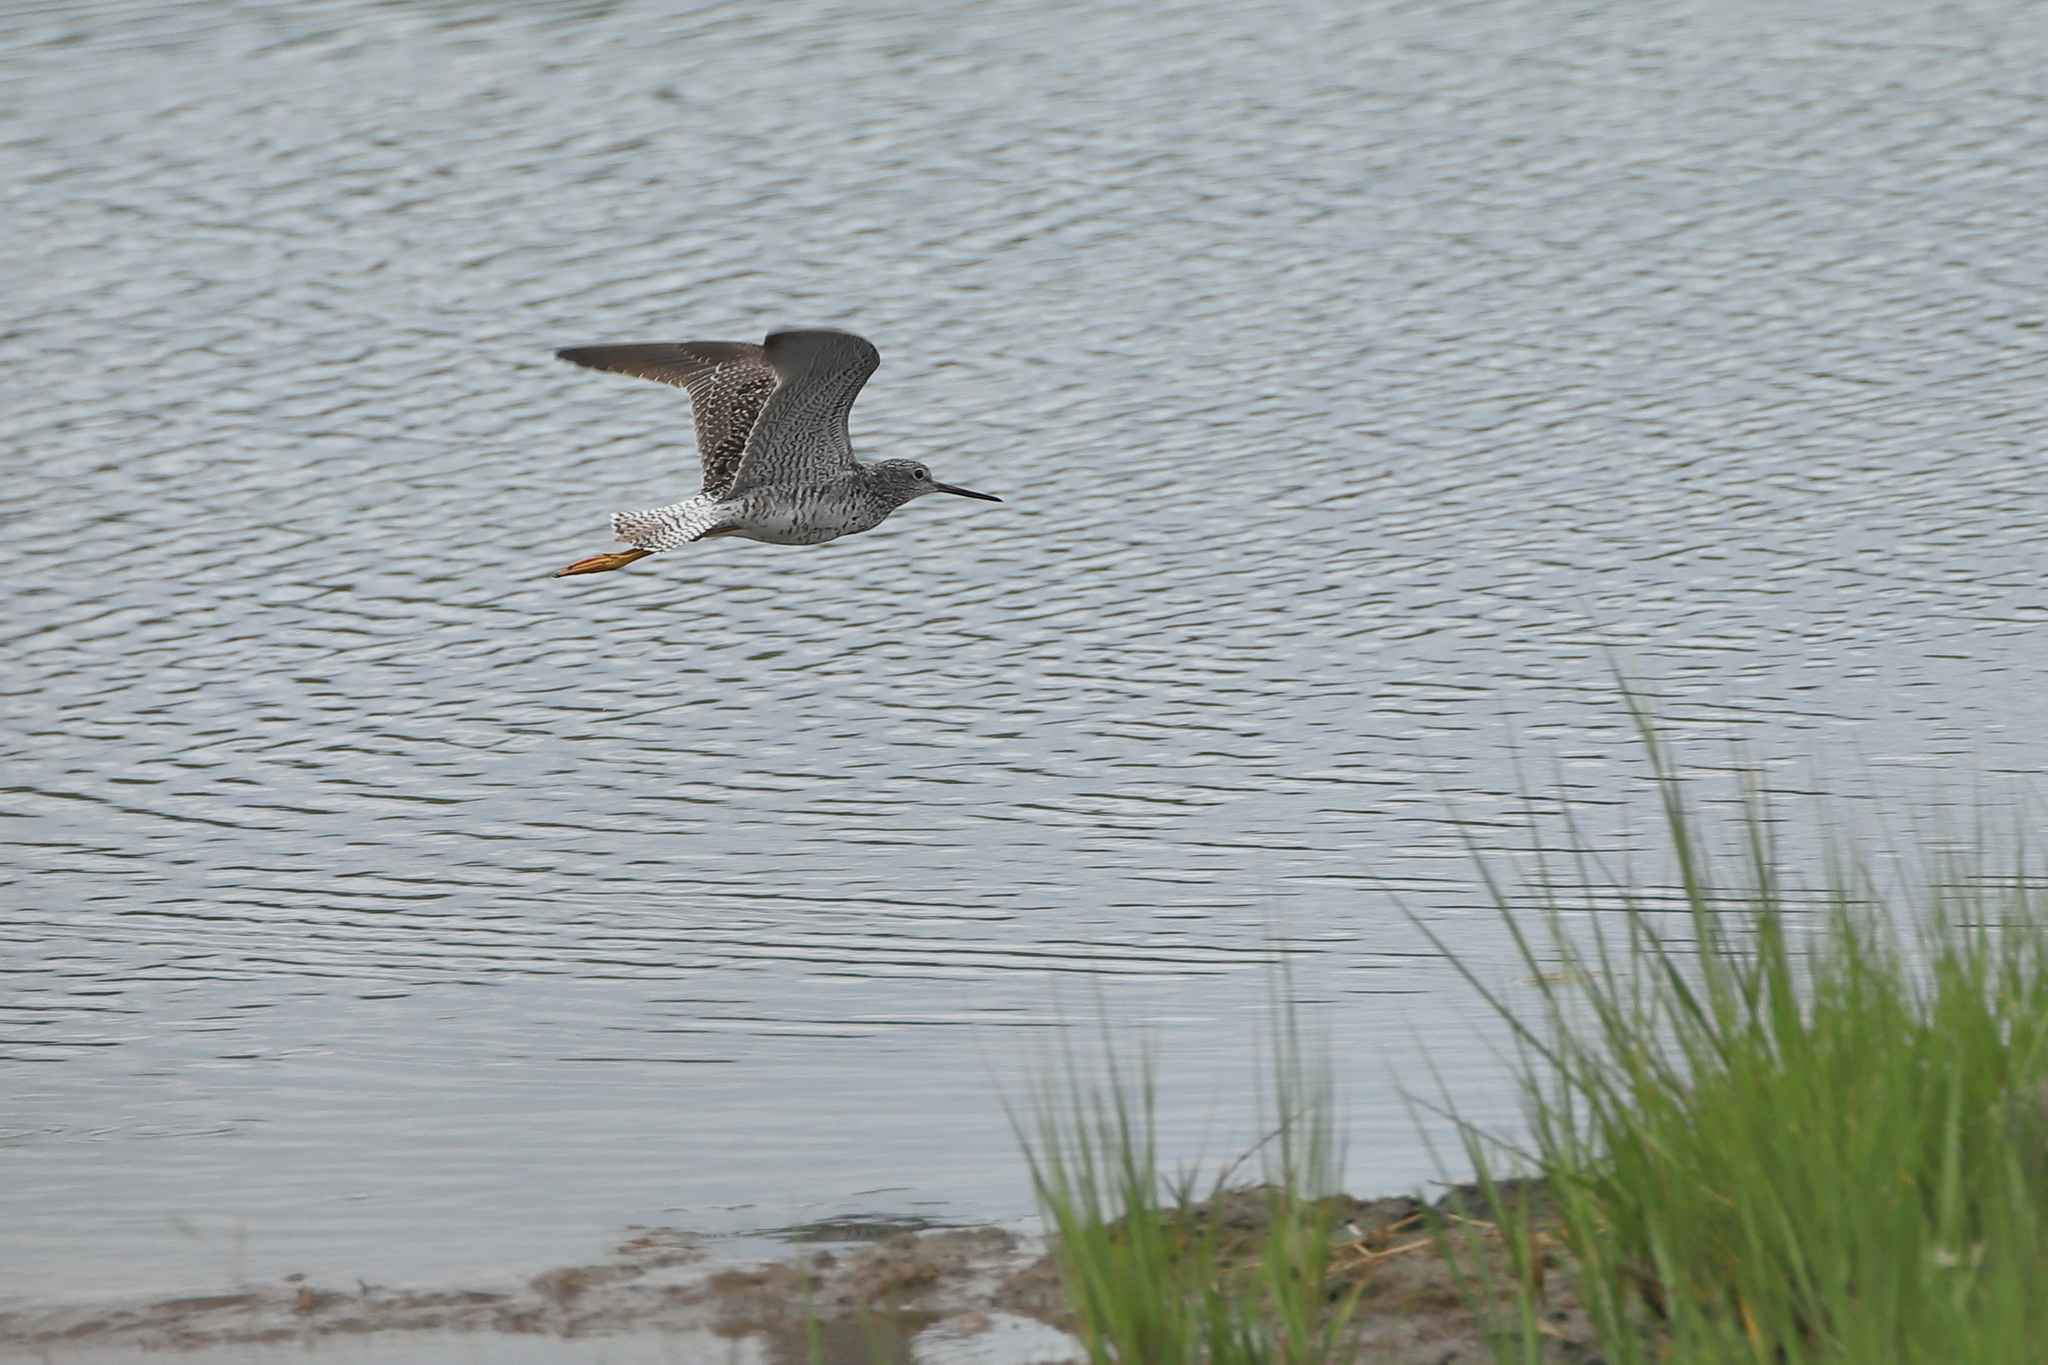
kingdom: Animalia
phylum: Chordata
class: Aves
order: Charadriiformes
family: Scolopacidae
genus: Tringa
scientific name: Tringa melanoleuca
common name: Greater yellowlegs
